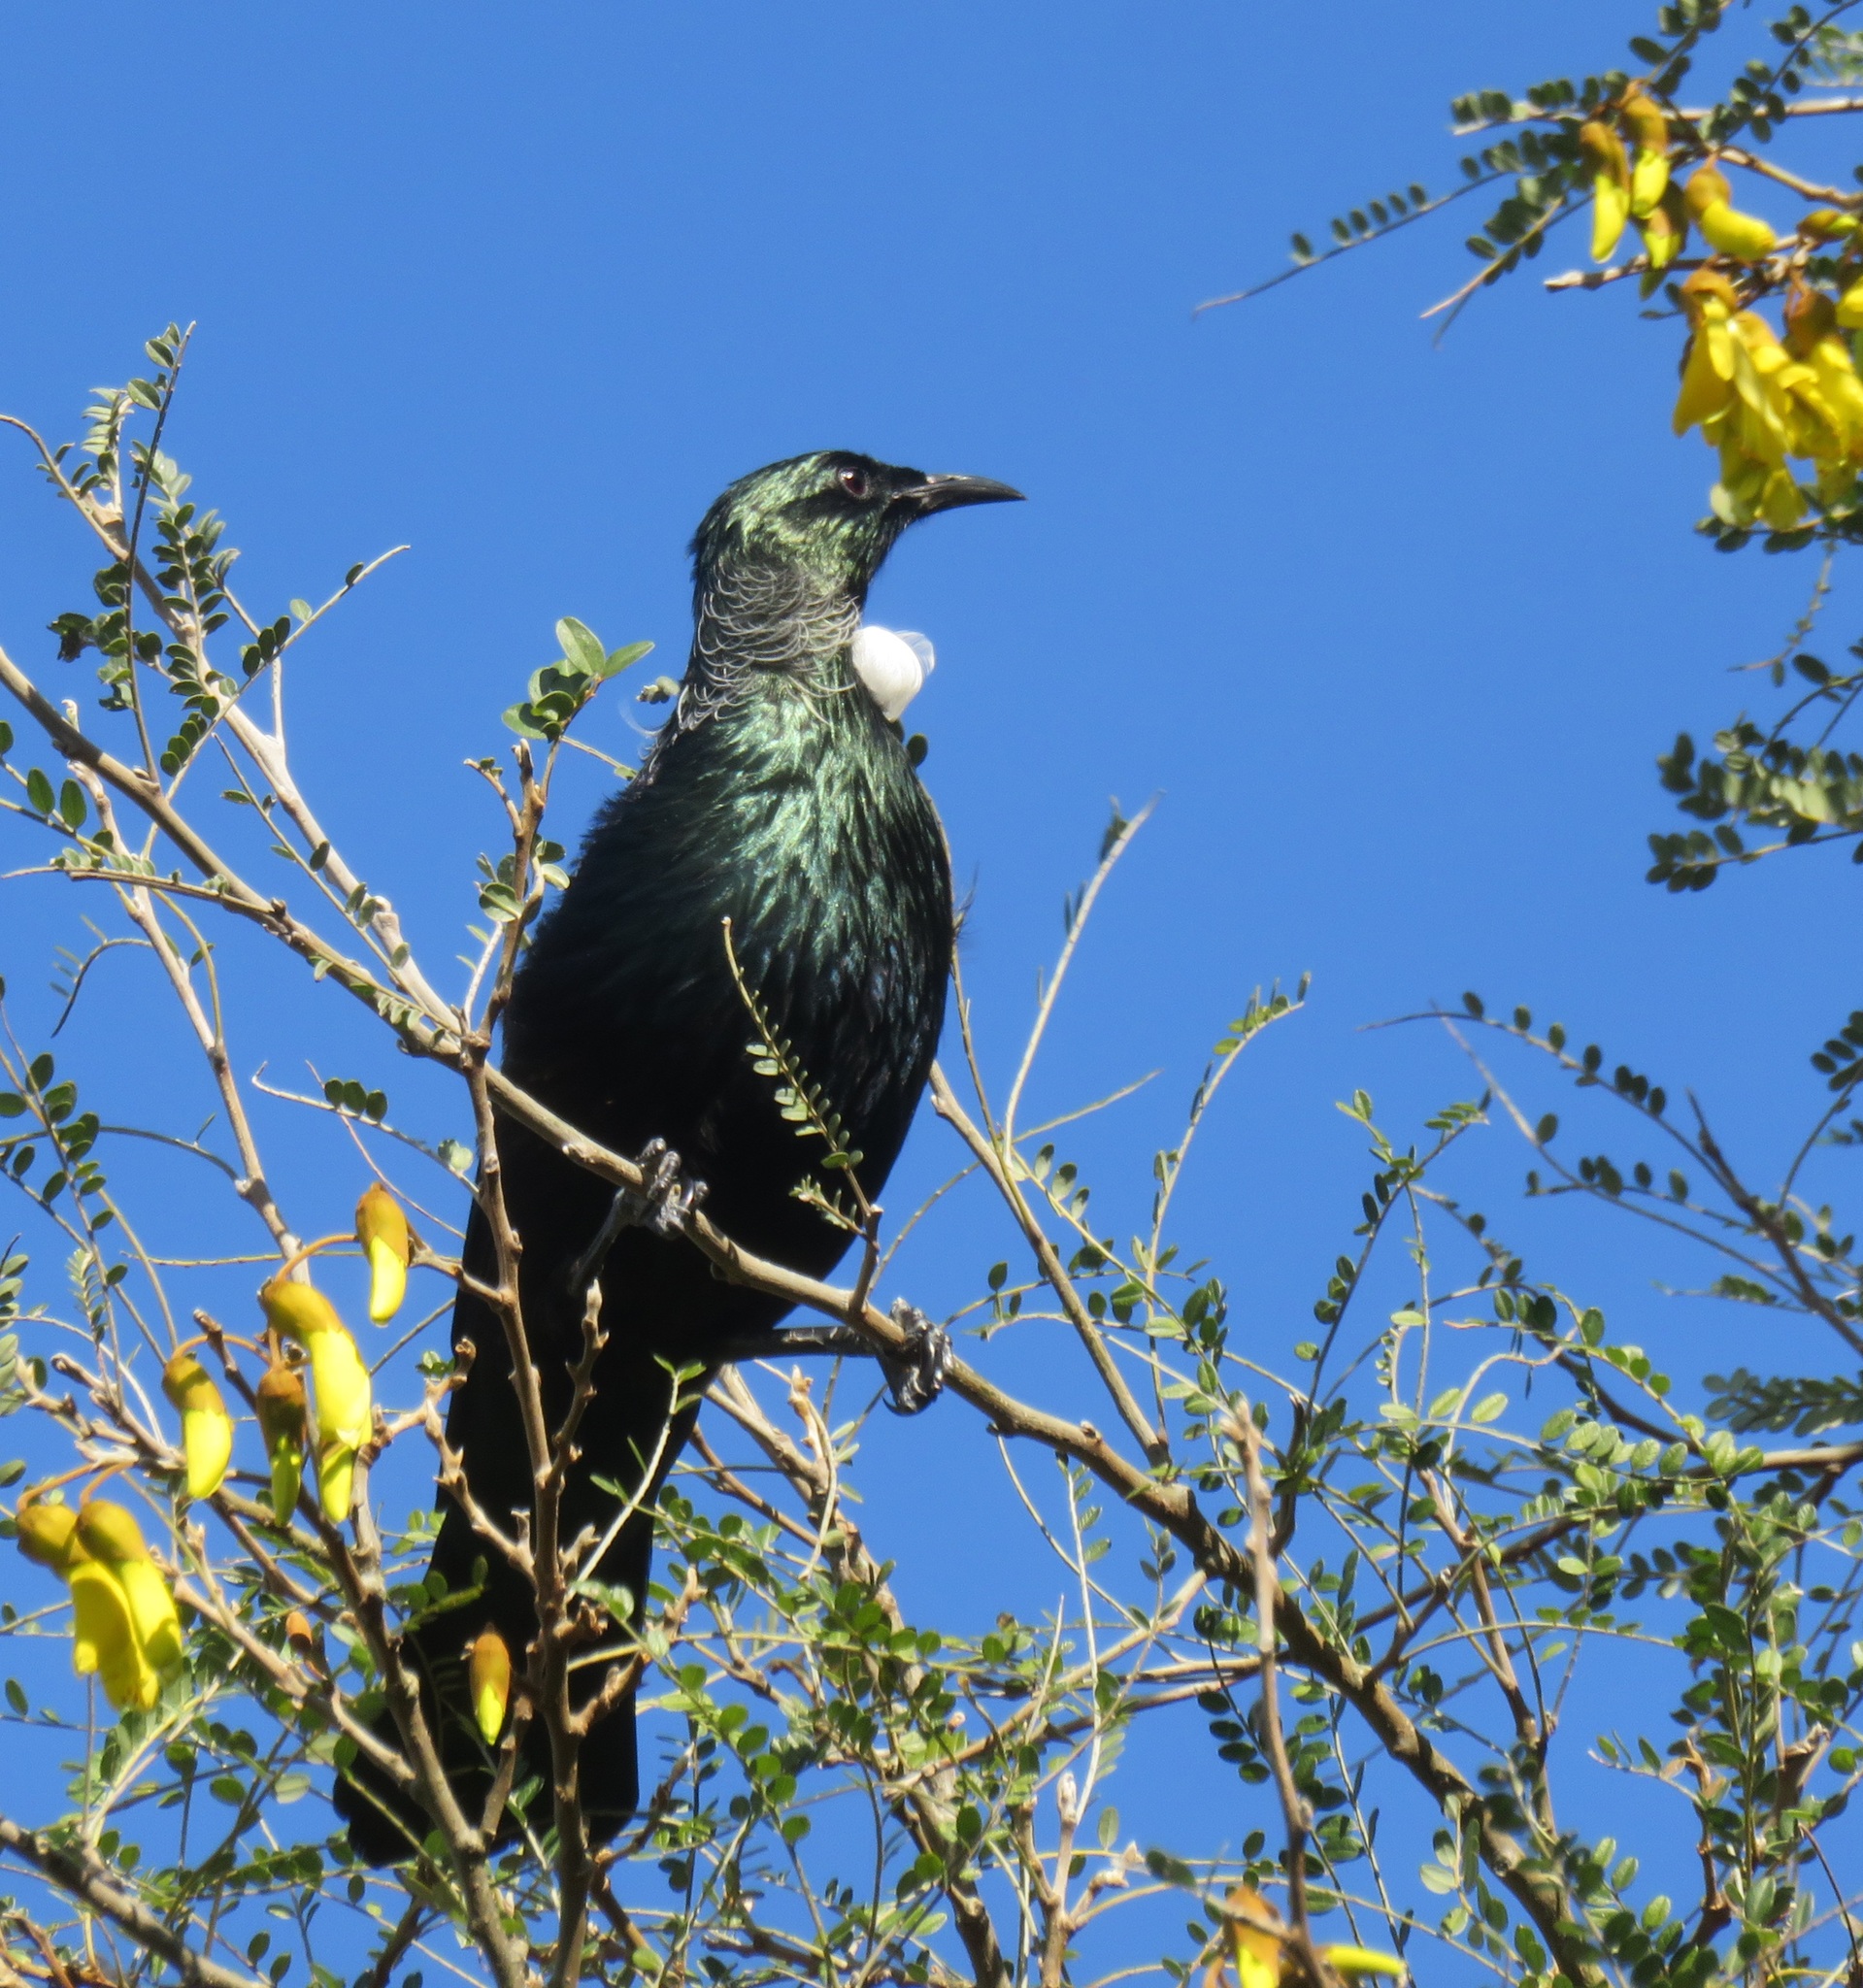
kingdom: Animalia
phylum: Chordata
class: Aves
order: Passeriformes
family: Meliphagidae
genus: Prosthemadera
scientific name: Prosthemadera novaeseelandiae
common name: Tui
